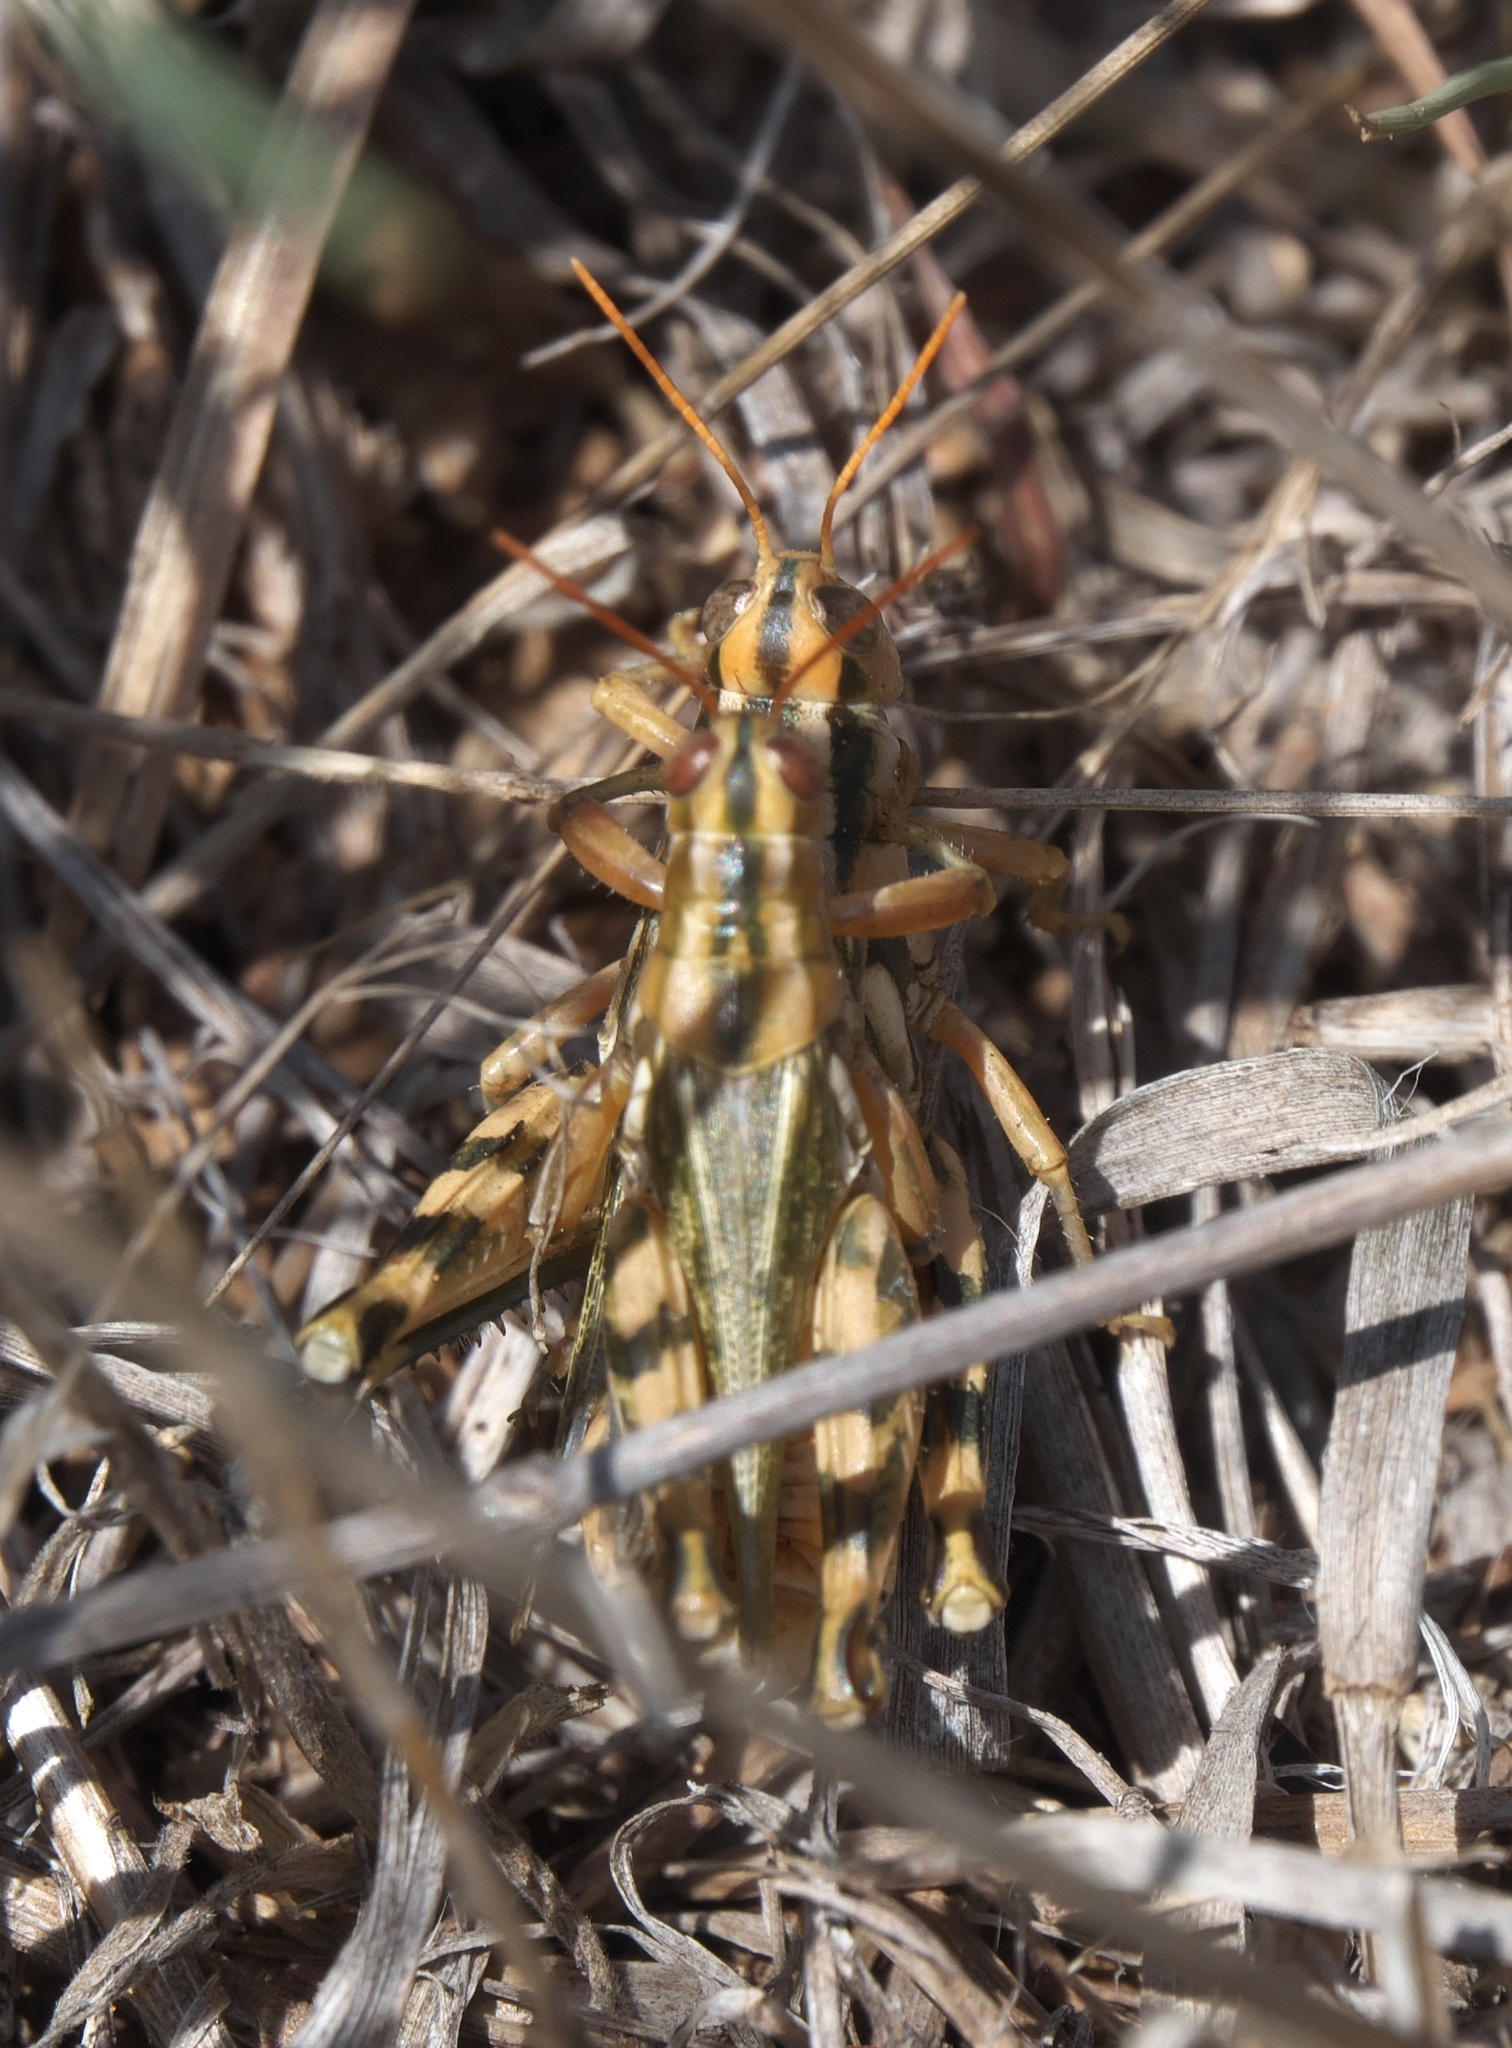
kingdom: Animalia
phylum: Arthropoda
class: Insecta
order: Orthoptera
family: Acrididae
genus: Aeoloplides
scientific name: Aeoloplides turnbulli
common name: Russianthistle grasshopper
